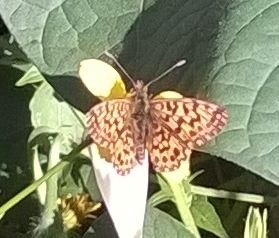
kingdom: Animalia
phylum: Arthropoda
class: Insecta
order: Lepidoptera
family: Nymphalidae
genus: Boloria
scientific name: Boloria dia
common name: Weaver's fritillary
